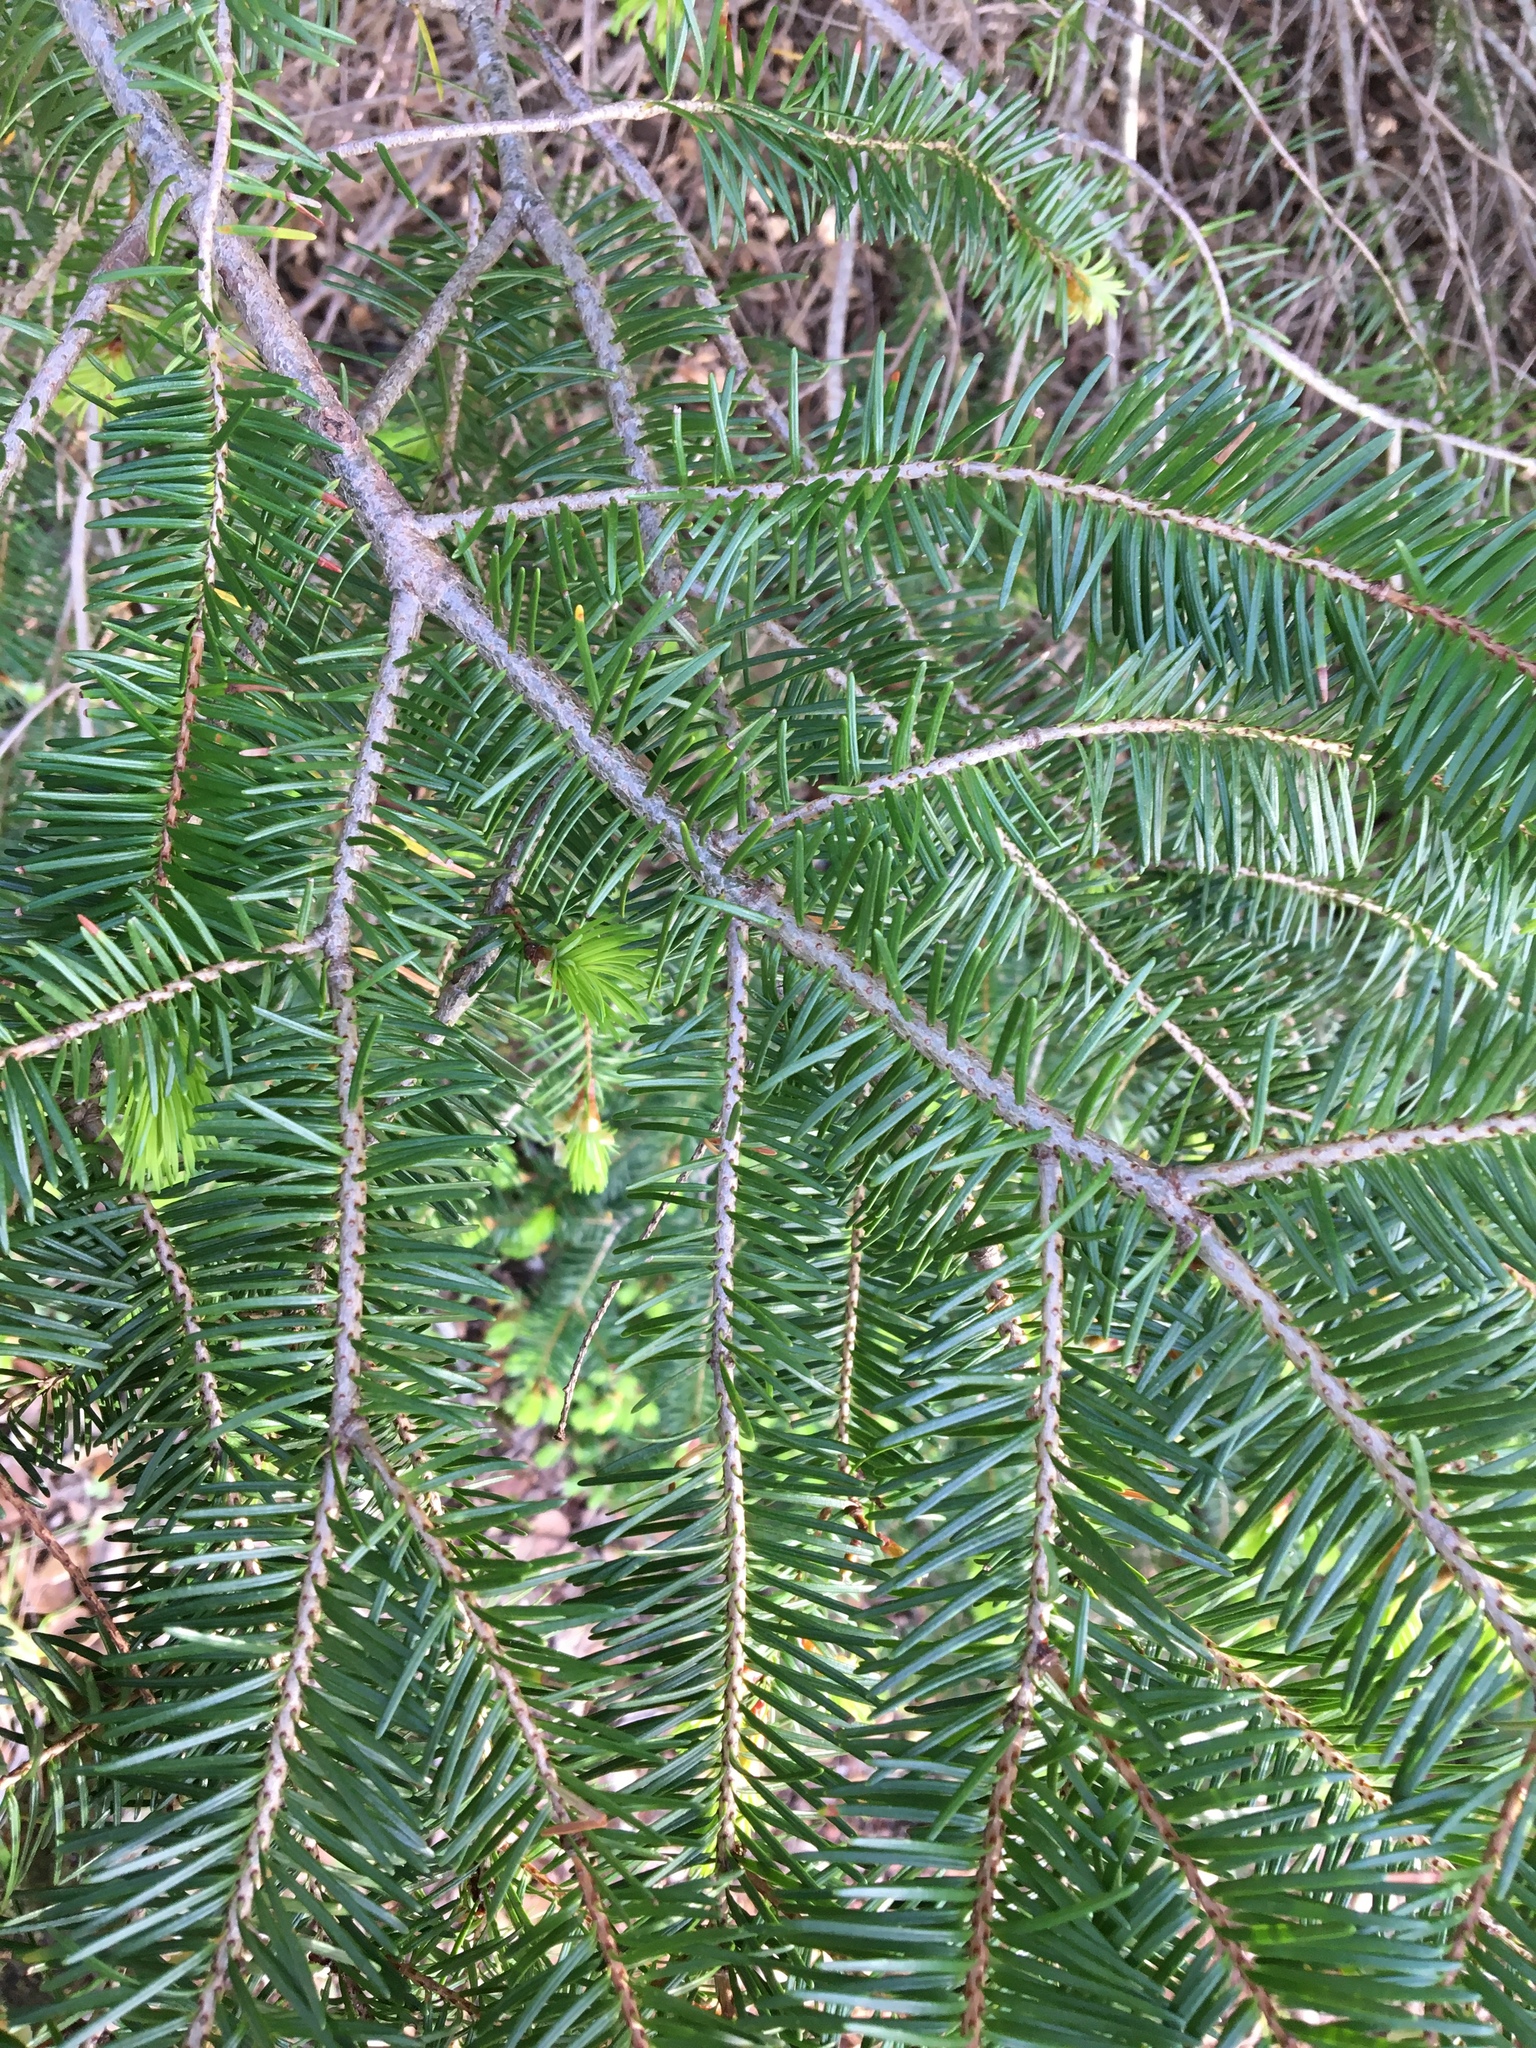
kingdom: Plantae
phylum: Tracheophyta
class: Pinopsida
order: Pinales
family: Pinaceae
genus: Pseudotsuga
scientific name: Pseudotsuga menziesii
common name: Douglas fir
